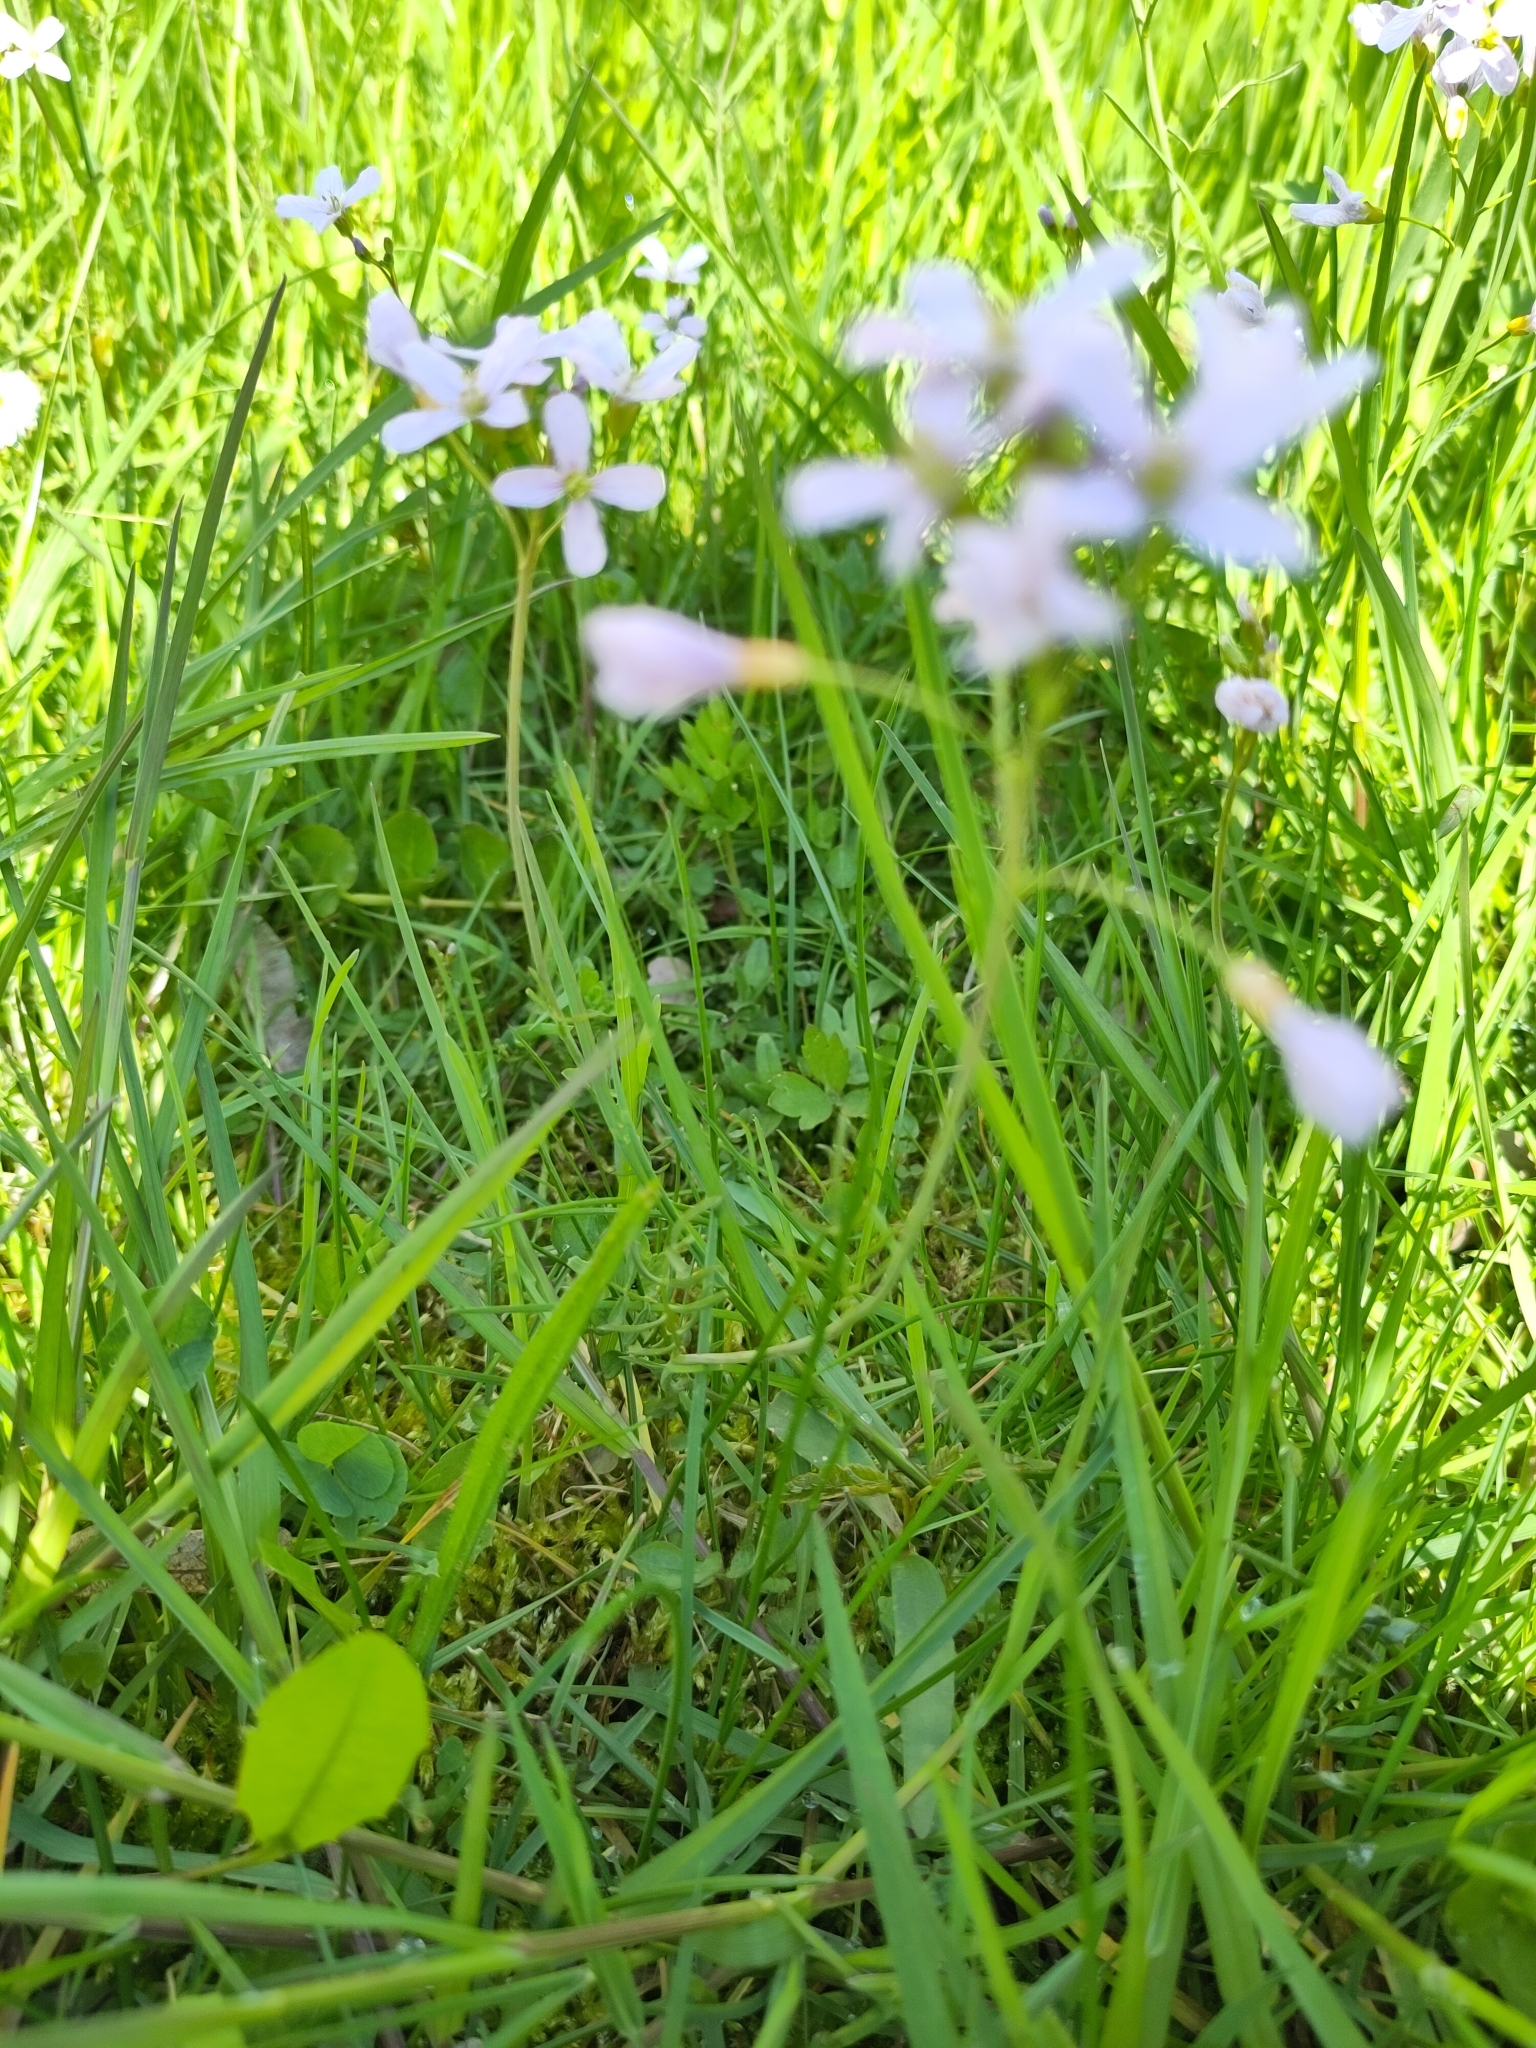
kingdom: Plantae
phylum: Tracheophyta
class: Magnoliopsida
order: Brassicales
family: Brassicaceae
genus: Cardamine
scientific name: Cardamine pratensis
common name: Cuckoo flower
